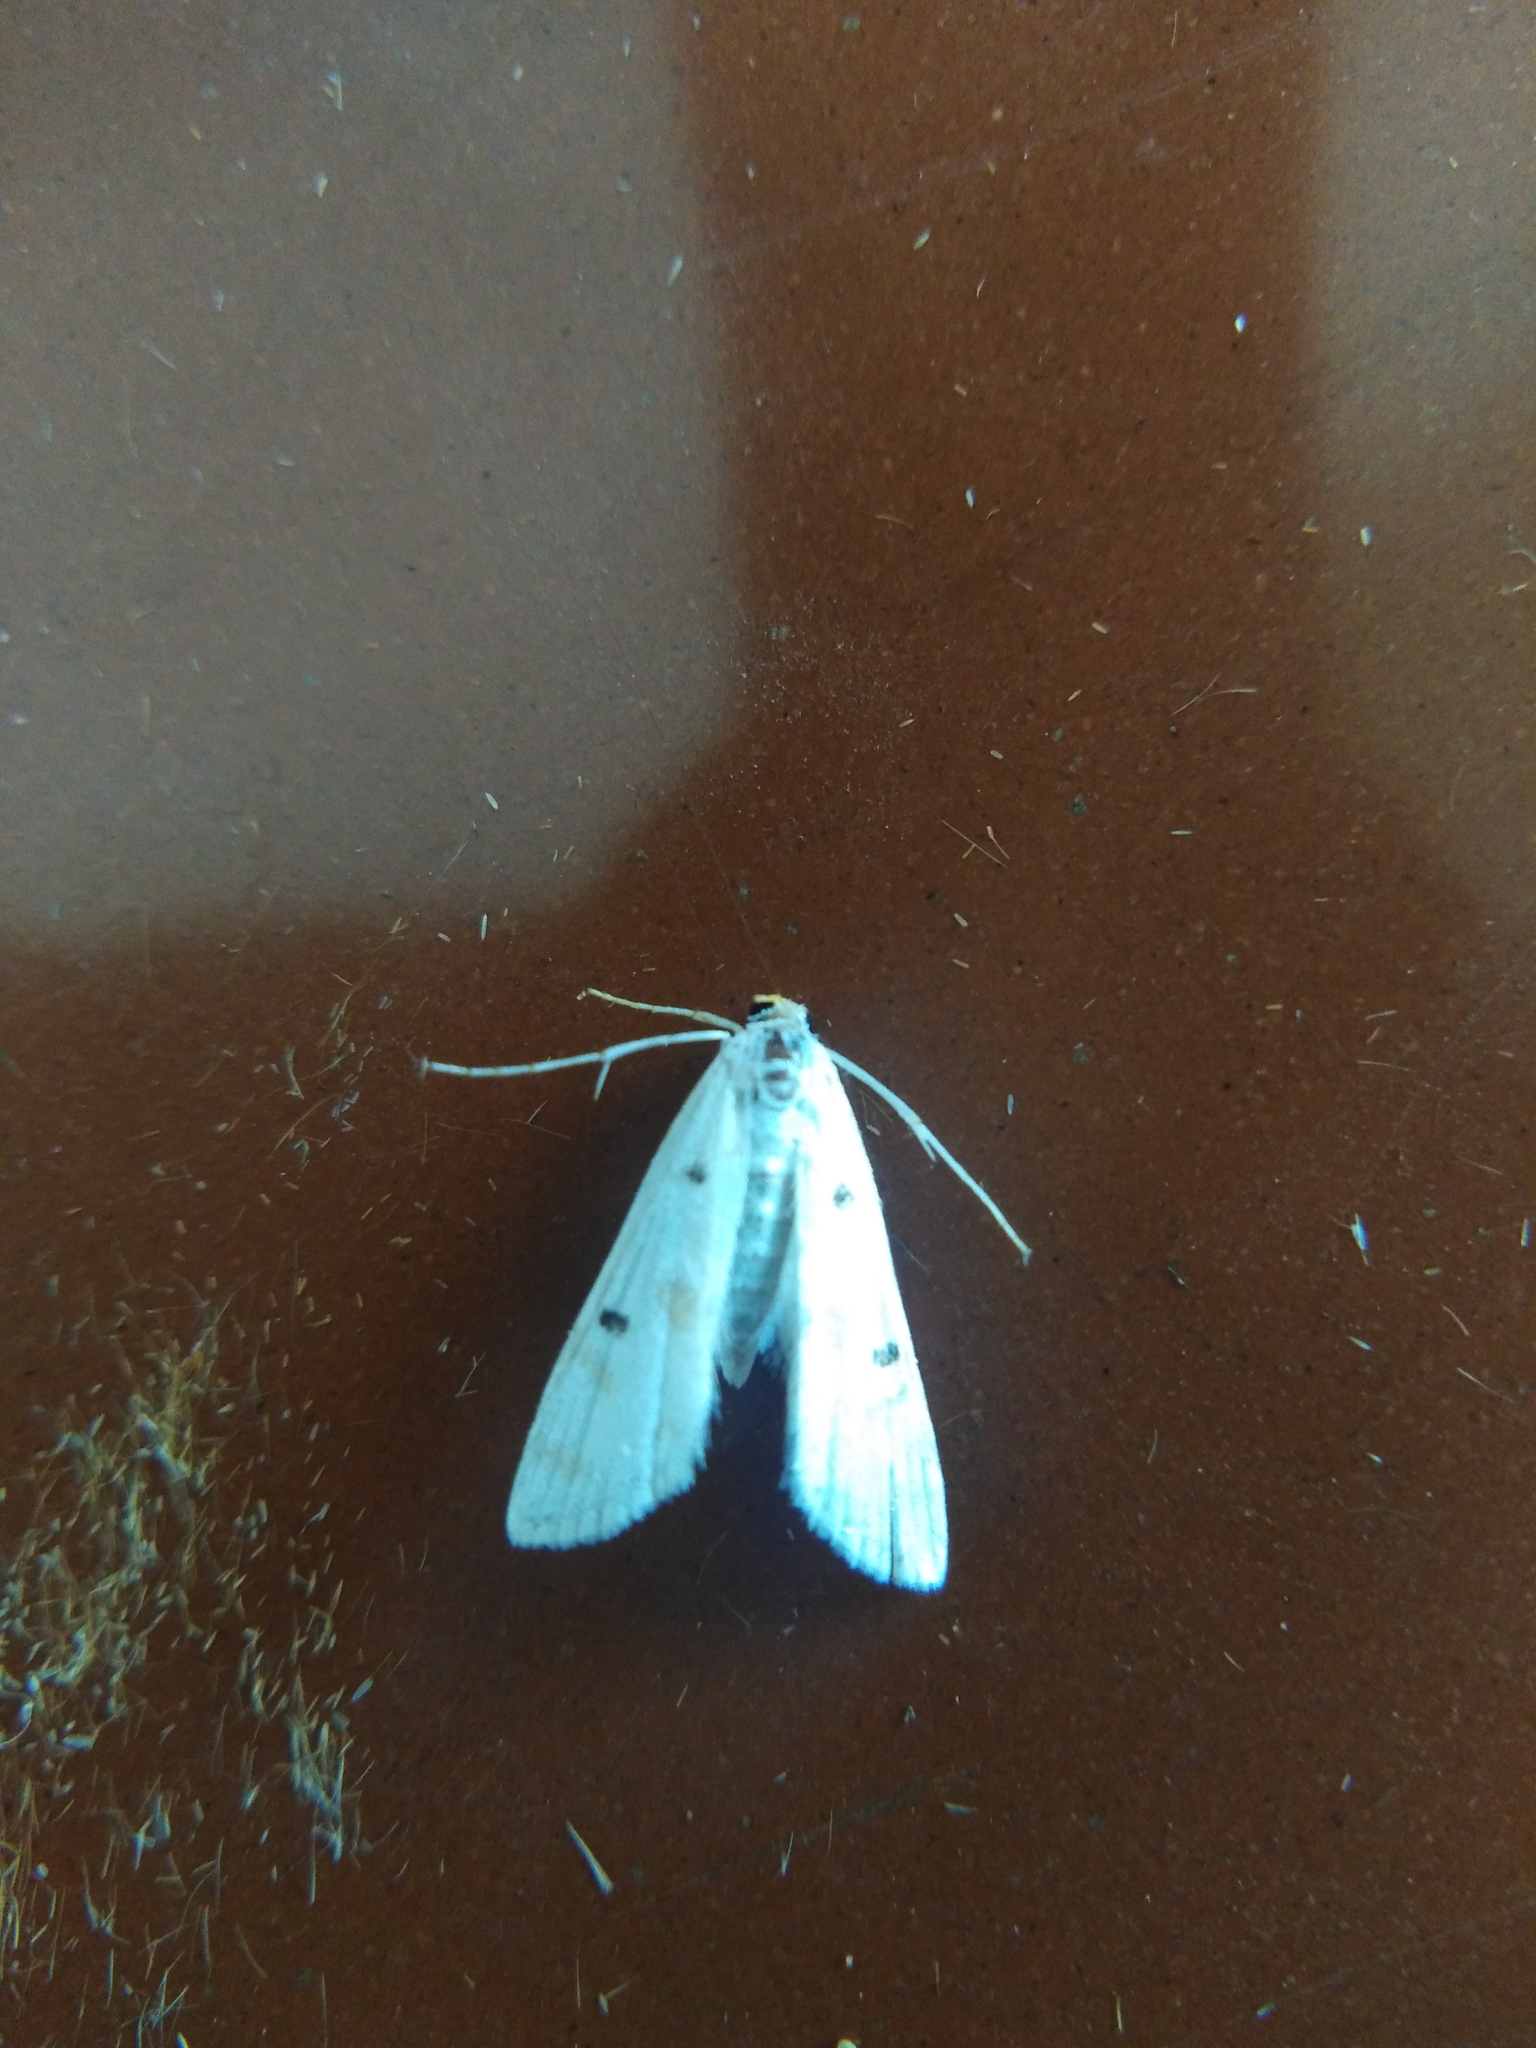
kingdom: Animalia
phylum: Arthropoda
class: Insecta
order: Lepidoptera
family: Crambidae
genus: Parapoynx
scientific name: Parapoynx stagnalis
